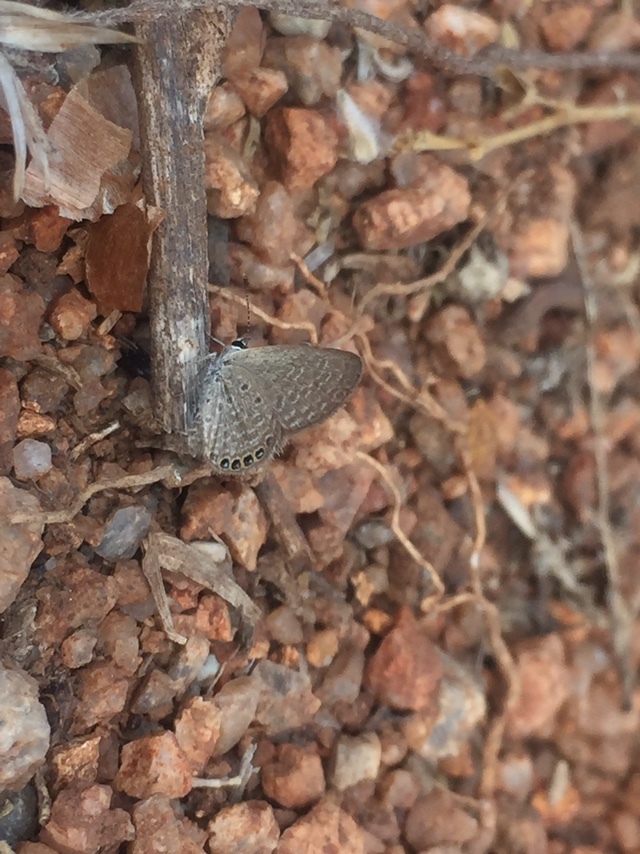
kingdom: Animalia
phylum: Arthropoda
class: Insecta
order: Lepidoptera
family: Lycaenidae
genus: Freyeria
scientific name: Freyeria putli
